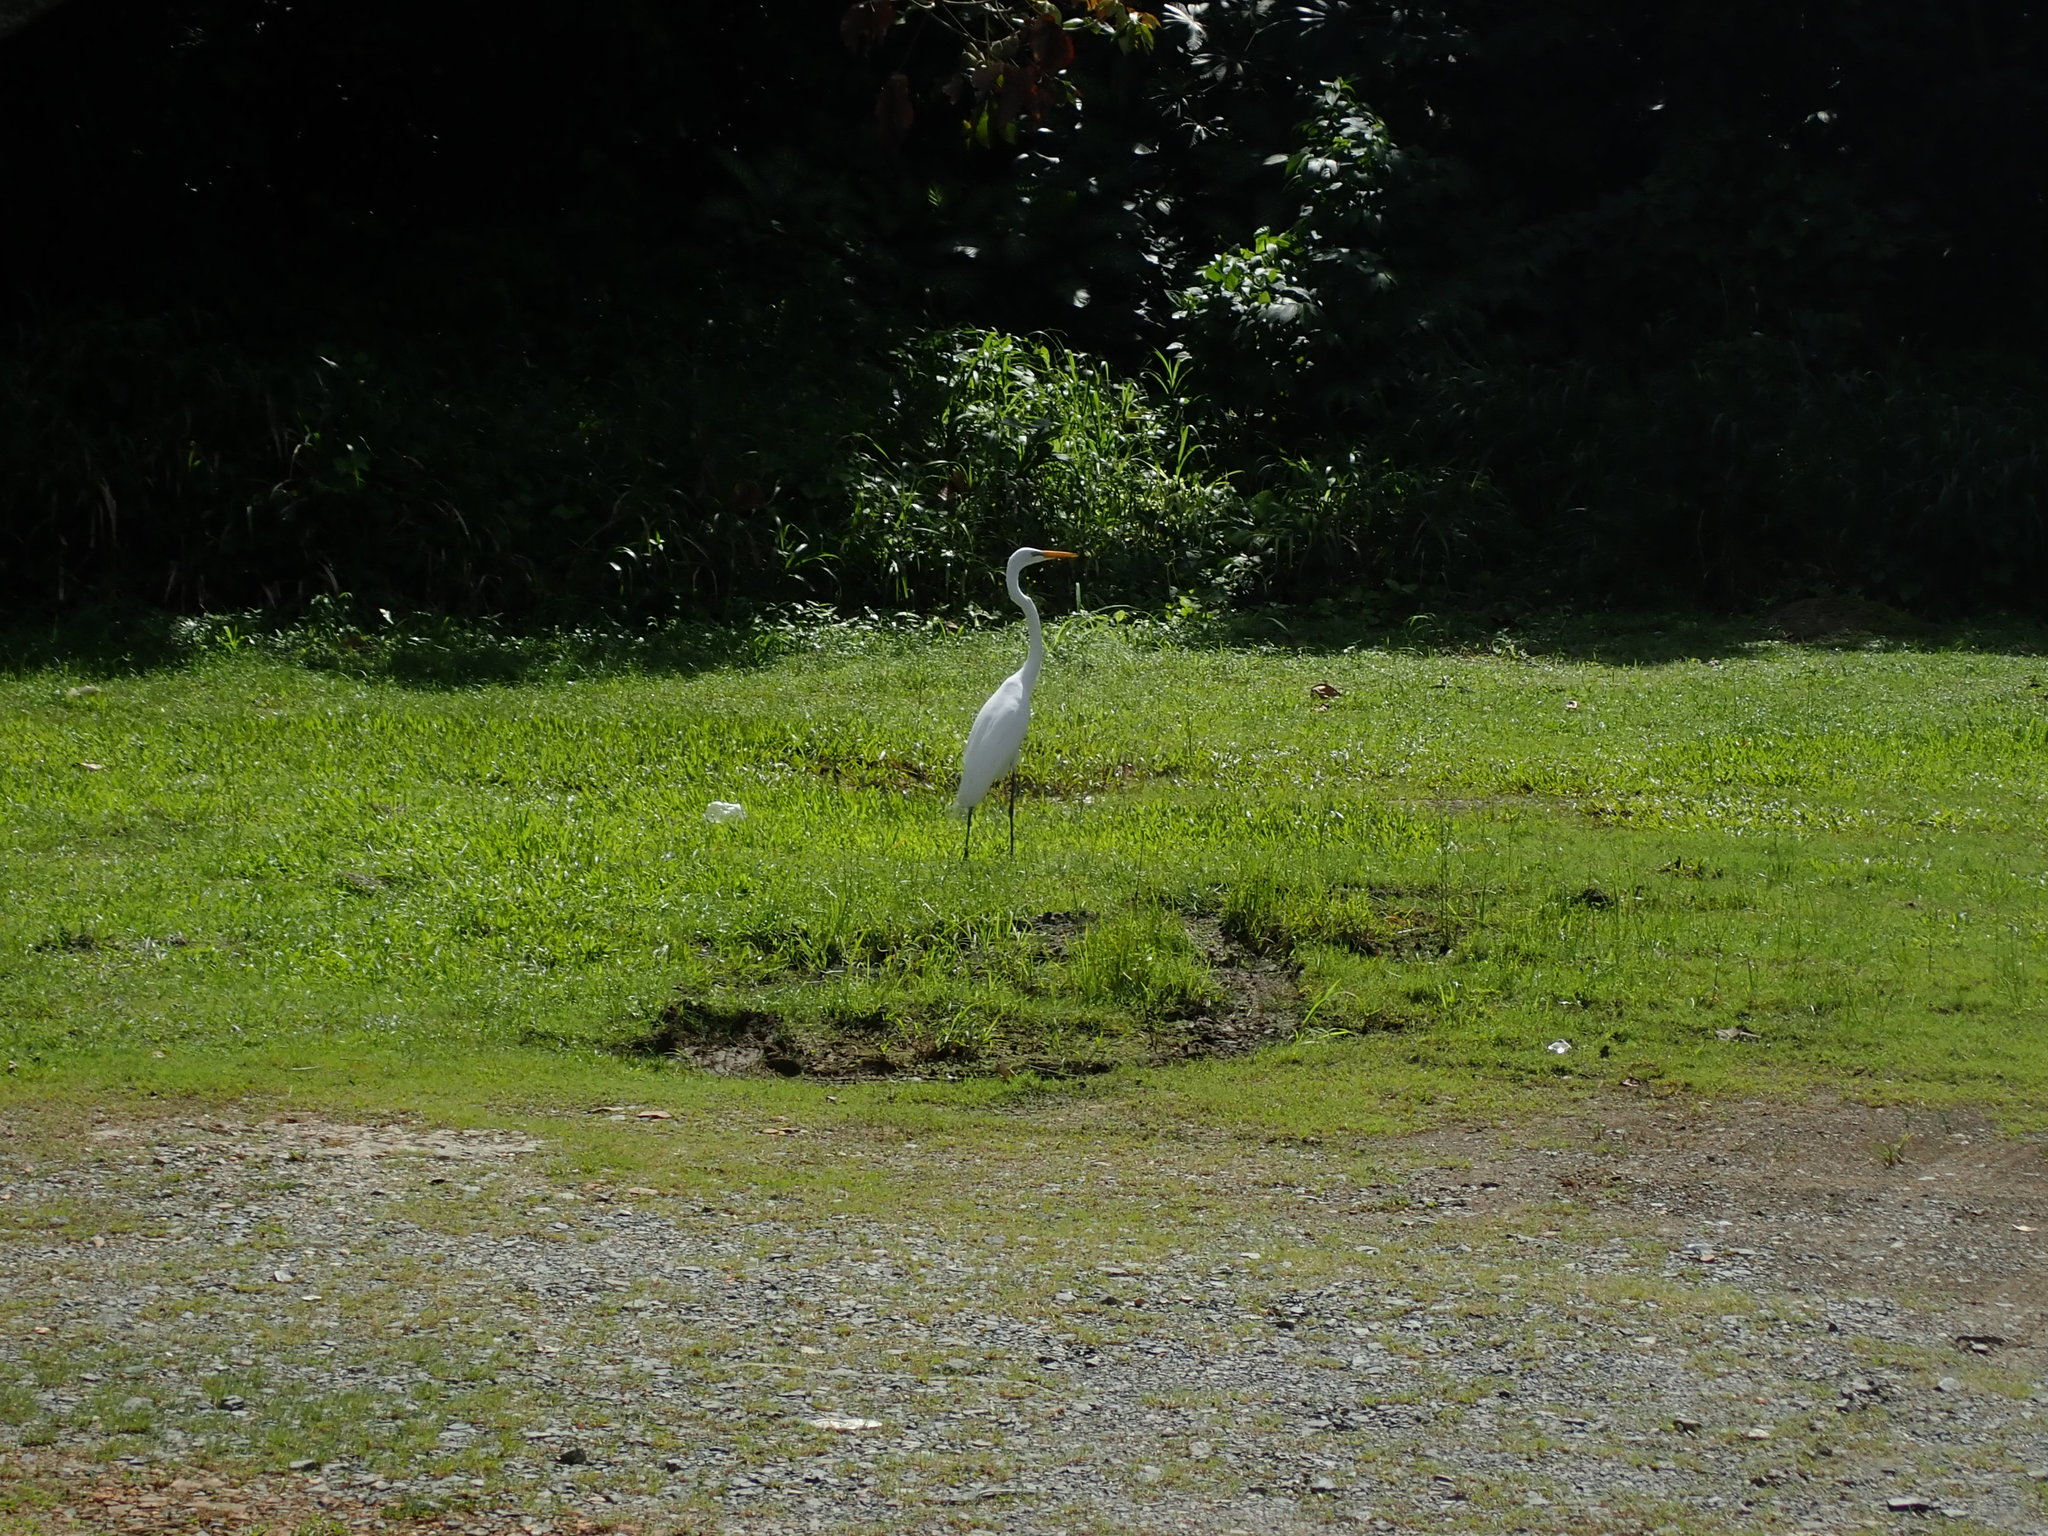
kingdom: Animalia
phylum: Chordata
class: Aves
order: Pelecaniformes
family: Ardeidae
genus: Ardea
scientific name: Ardea alba
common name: Great egret
